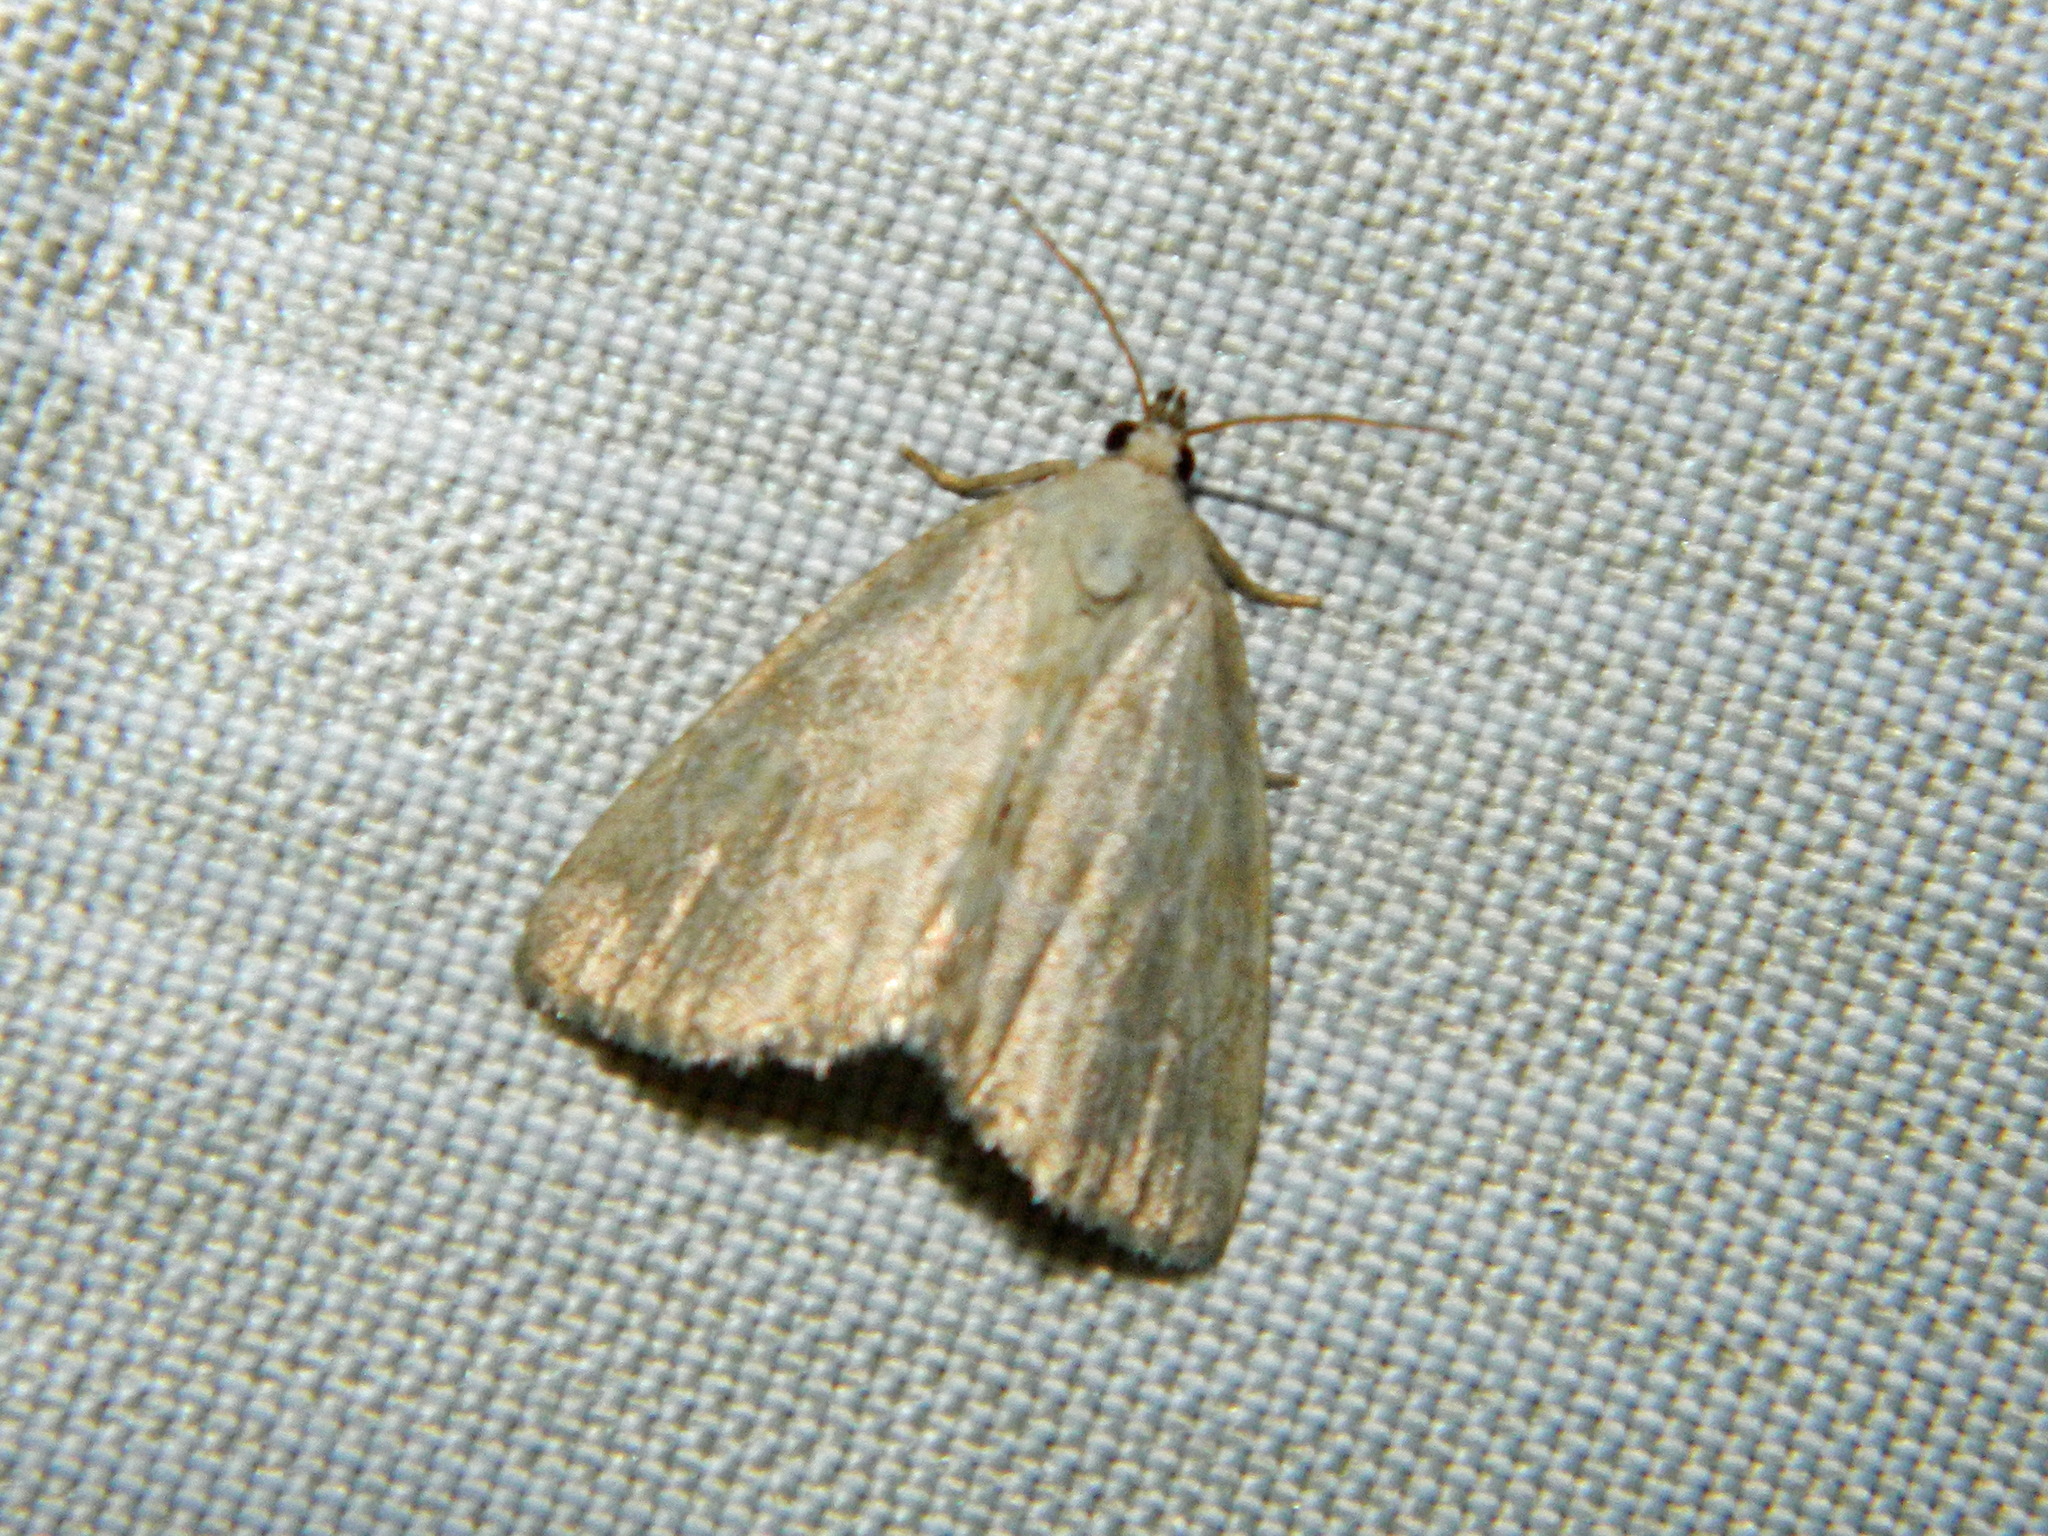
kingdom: Animalia
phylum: Arthropoda
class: Insecta
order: Lepidoptera
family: Noctuidae
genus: Protodeltote
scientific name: Protodeltote albidula
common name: Pale glyph
